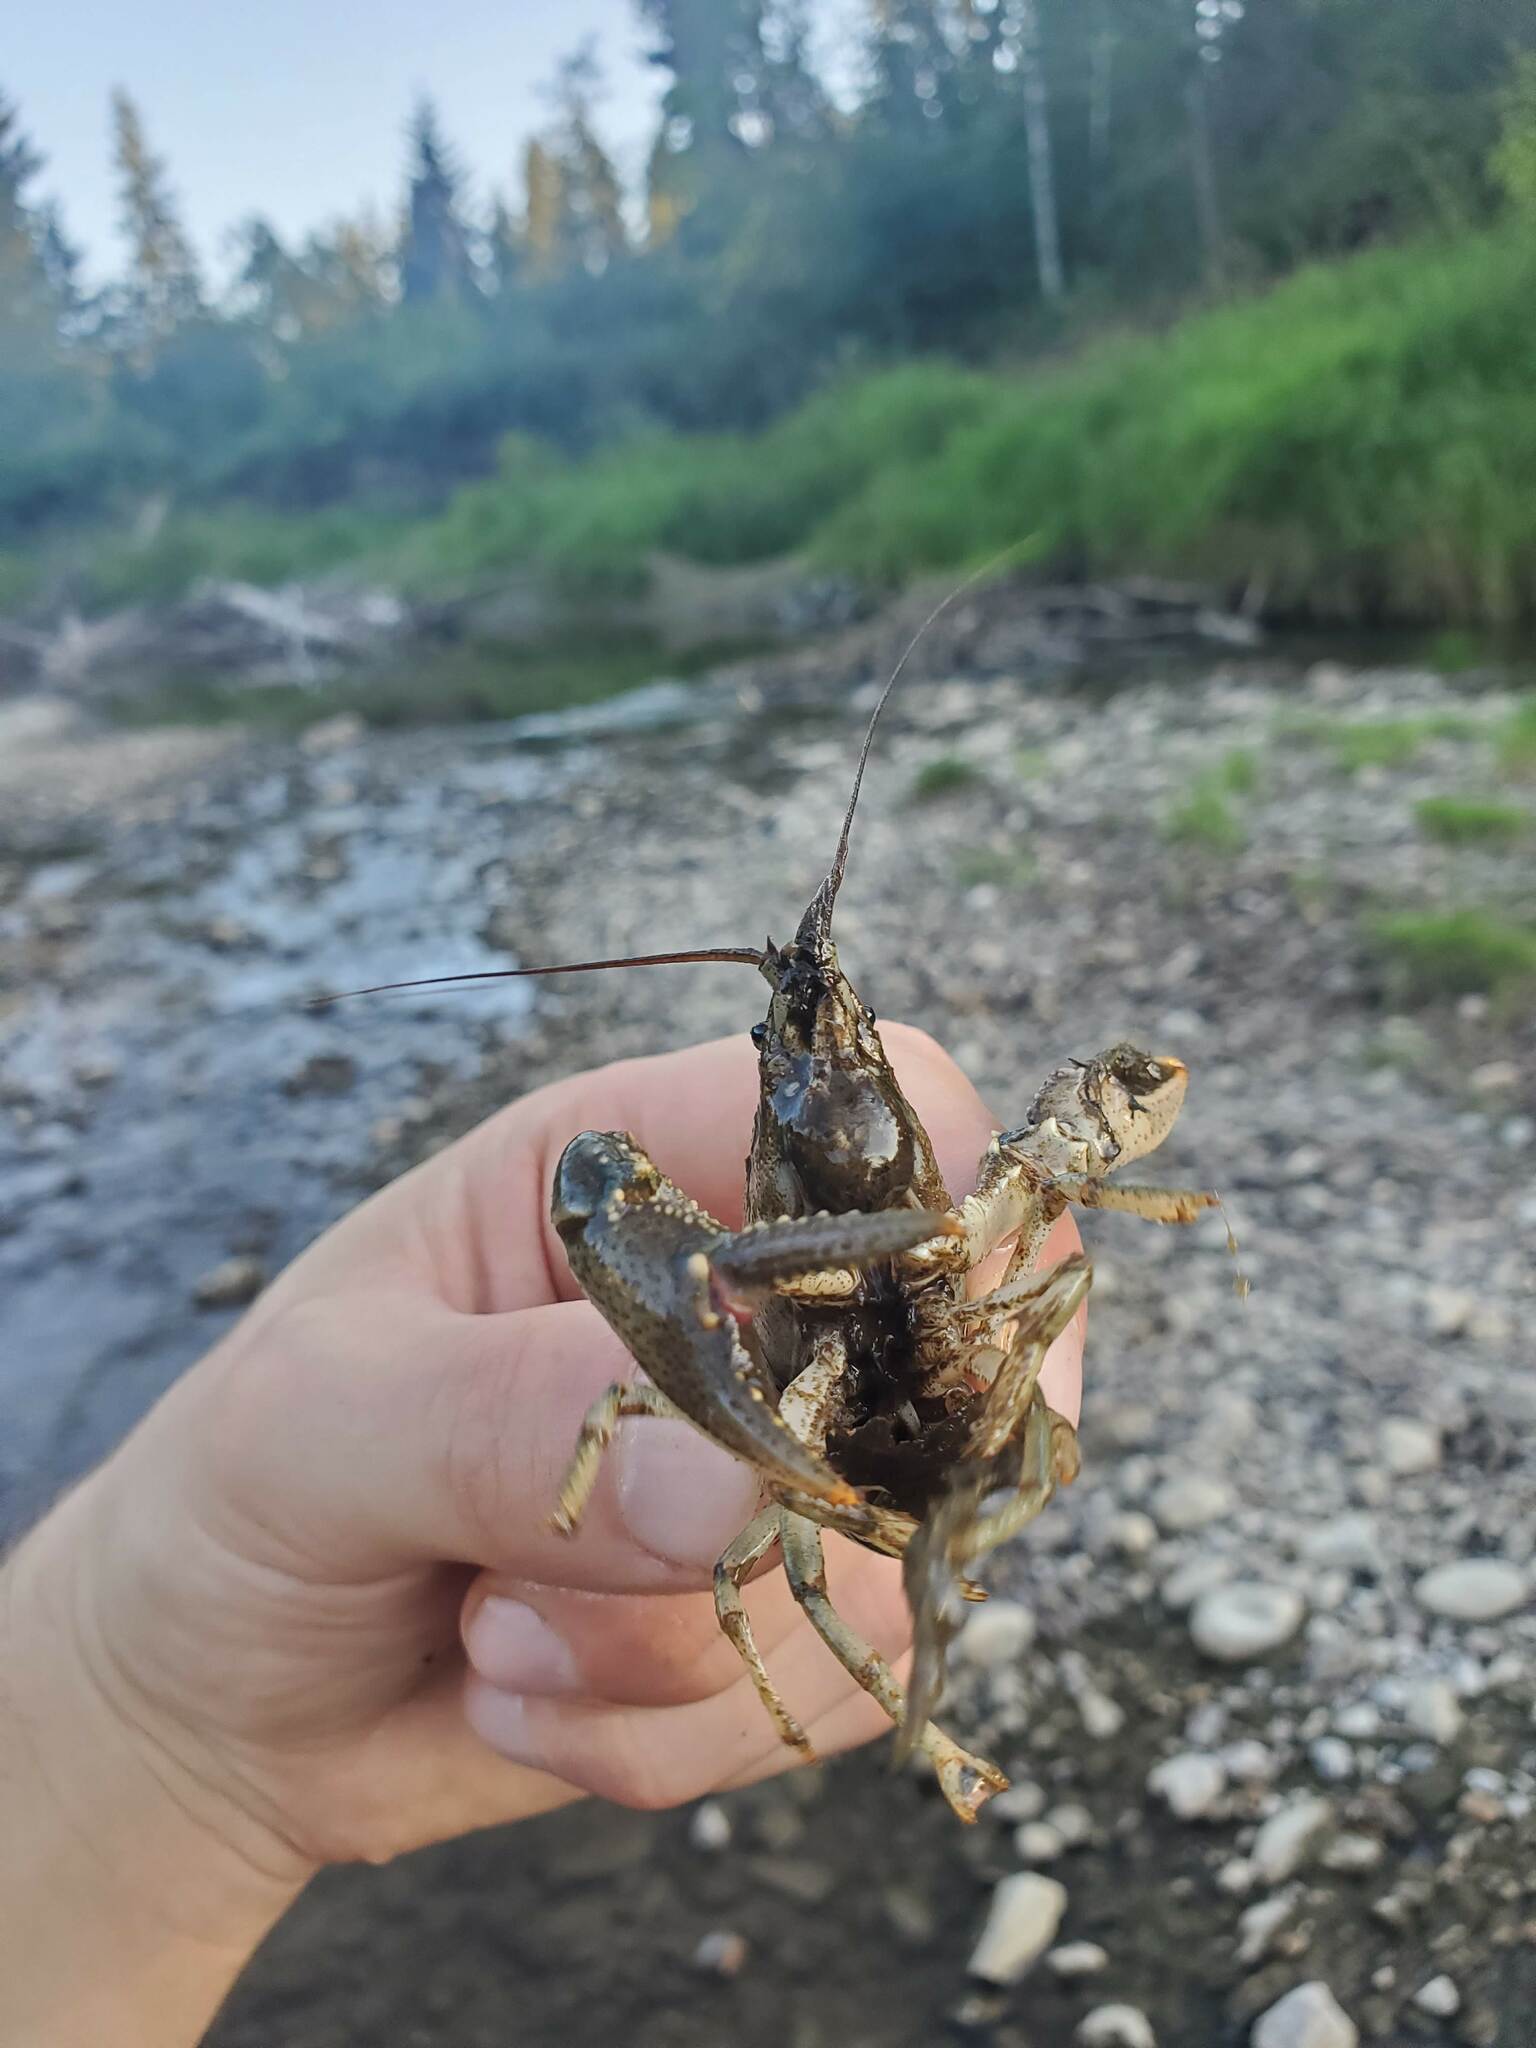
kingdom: Animalia
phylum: Arthropoda
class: Malacostraca
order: Decapoda
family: Cambaridae
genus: Faxonius
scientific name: Faxonius virilis
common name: Virile crayfish
